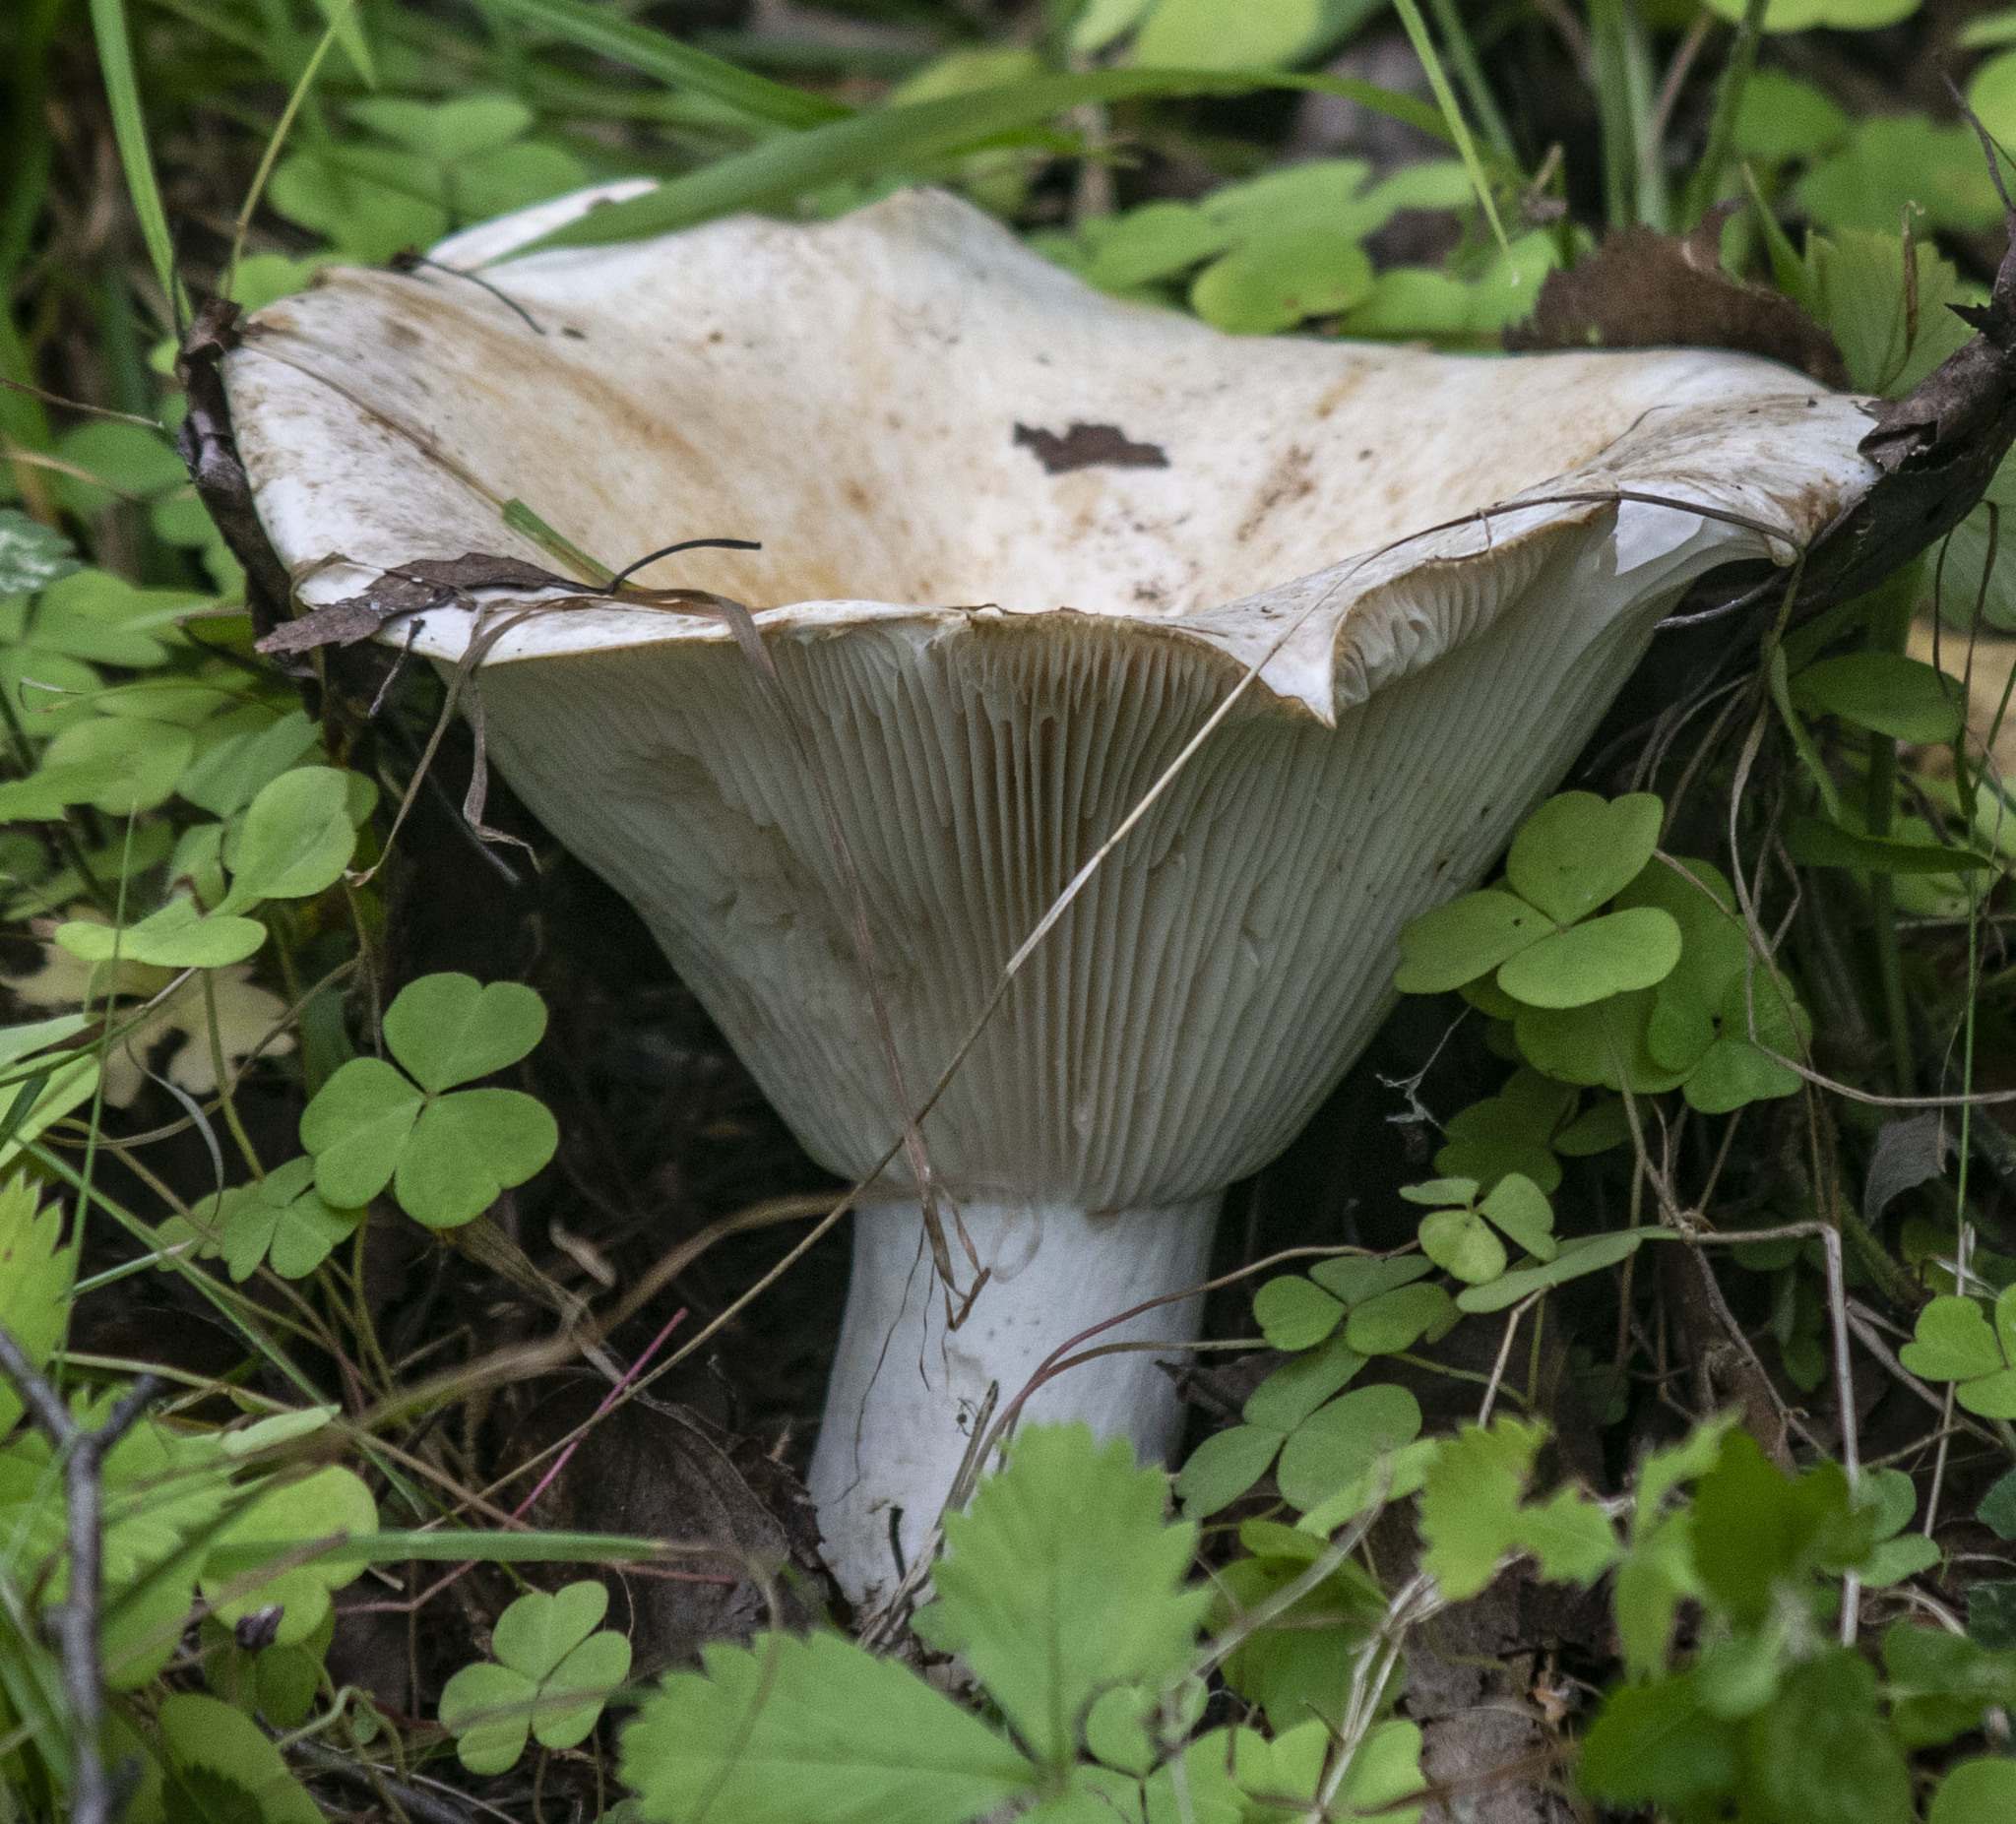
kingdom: Fungi
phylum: Basidiomycota
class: Agaricomycetes
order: Russulales
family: Russulaceae
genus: Russula
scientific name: Russula delica
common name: Milk white brittlegill
